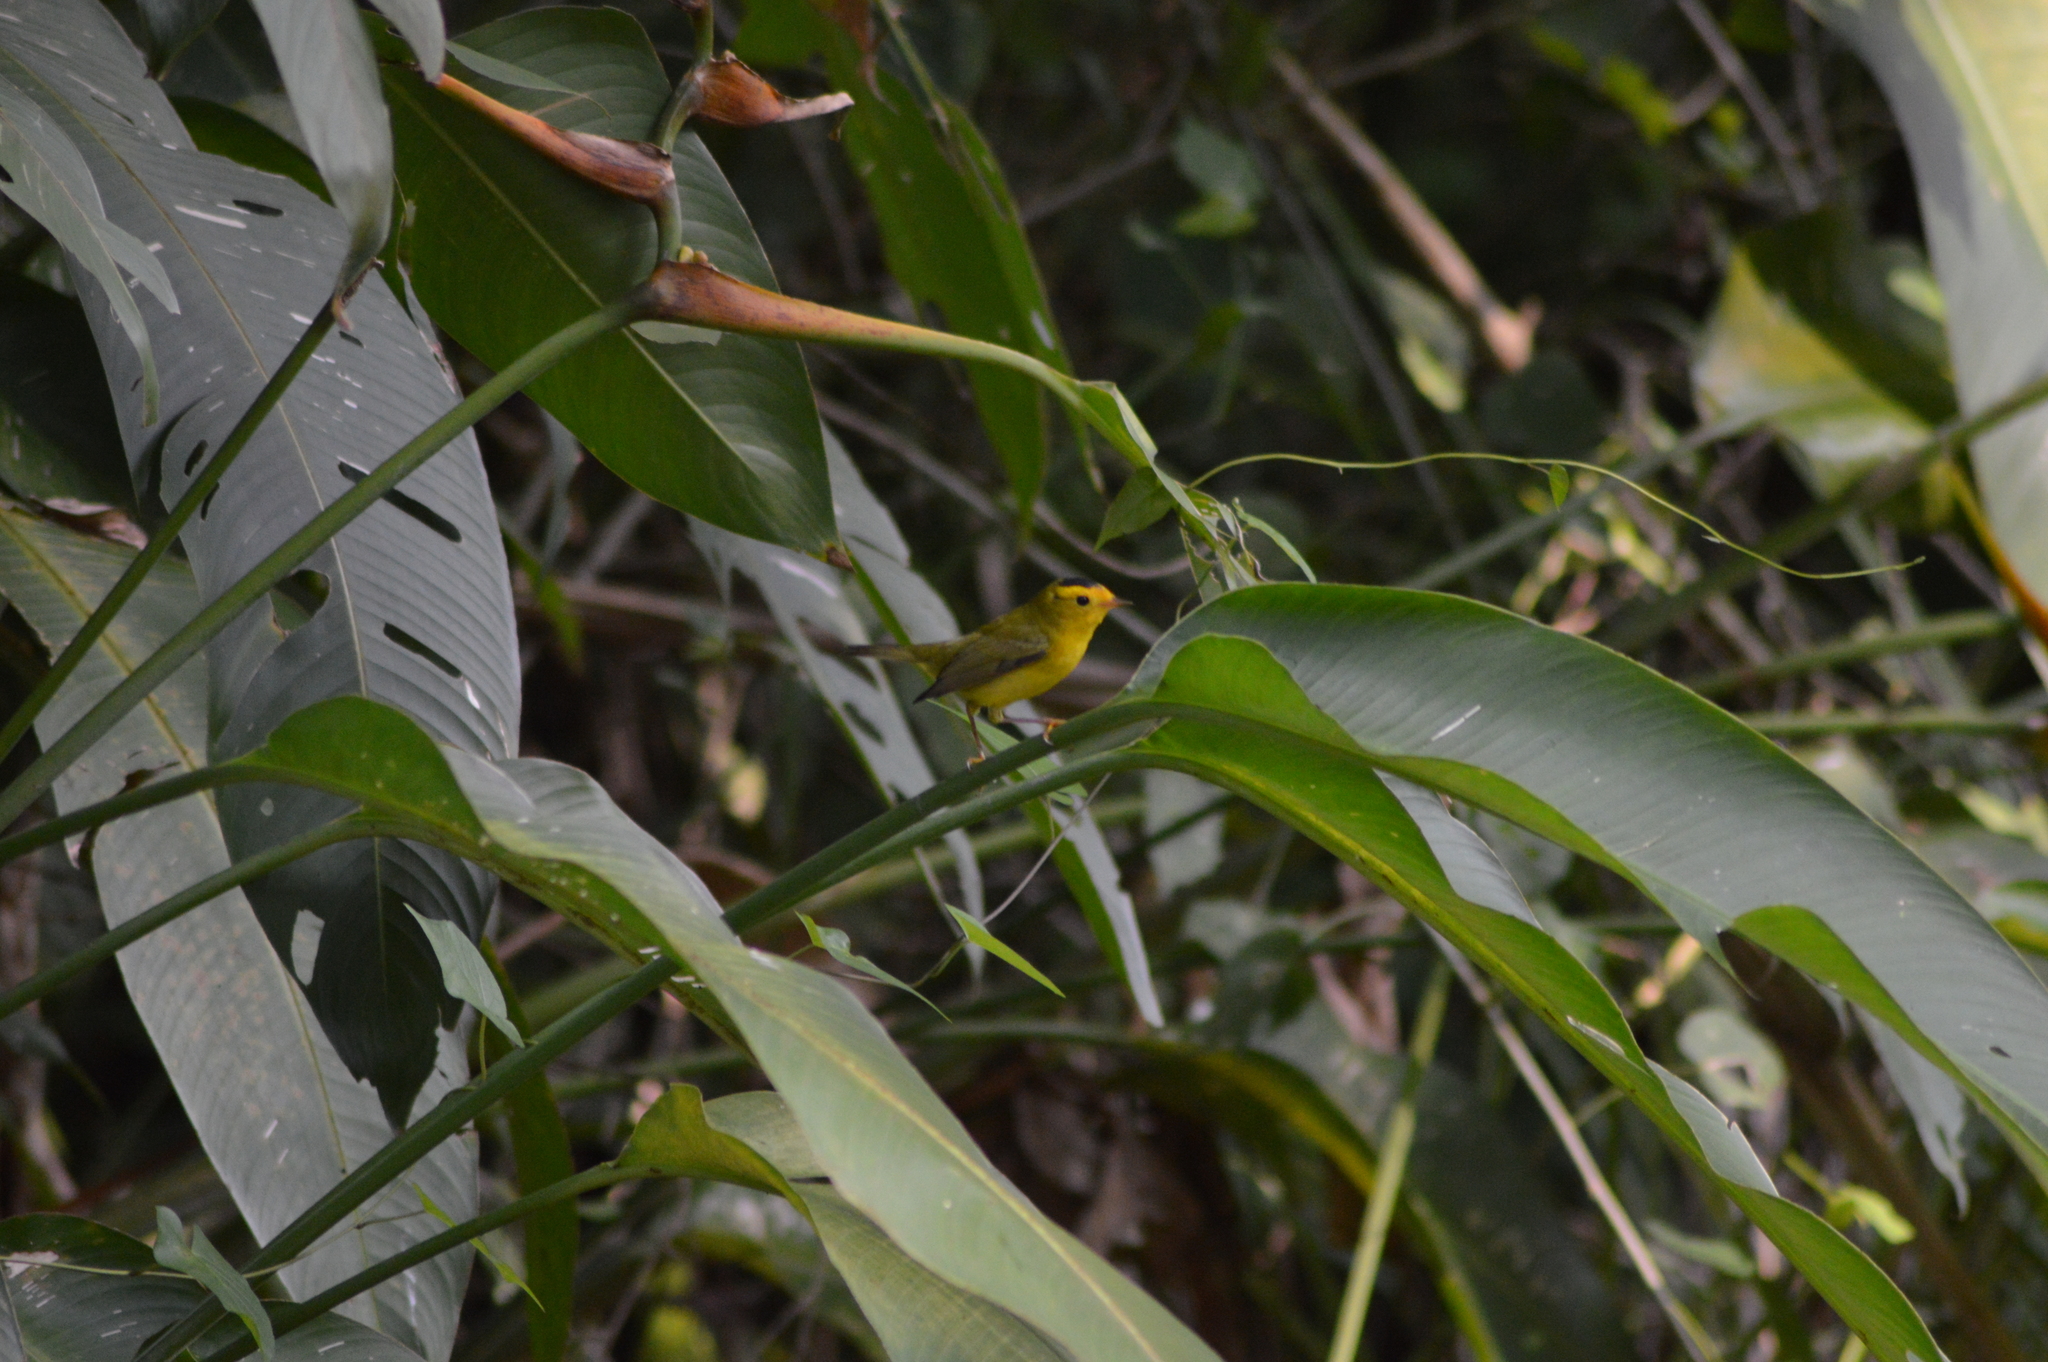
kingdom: Animalia
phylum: Chordata
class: Aves
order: Passeriformes
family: Parulidae
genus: Cardellina
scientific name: Cardellina pusilla
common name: Wilson's warbler
